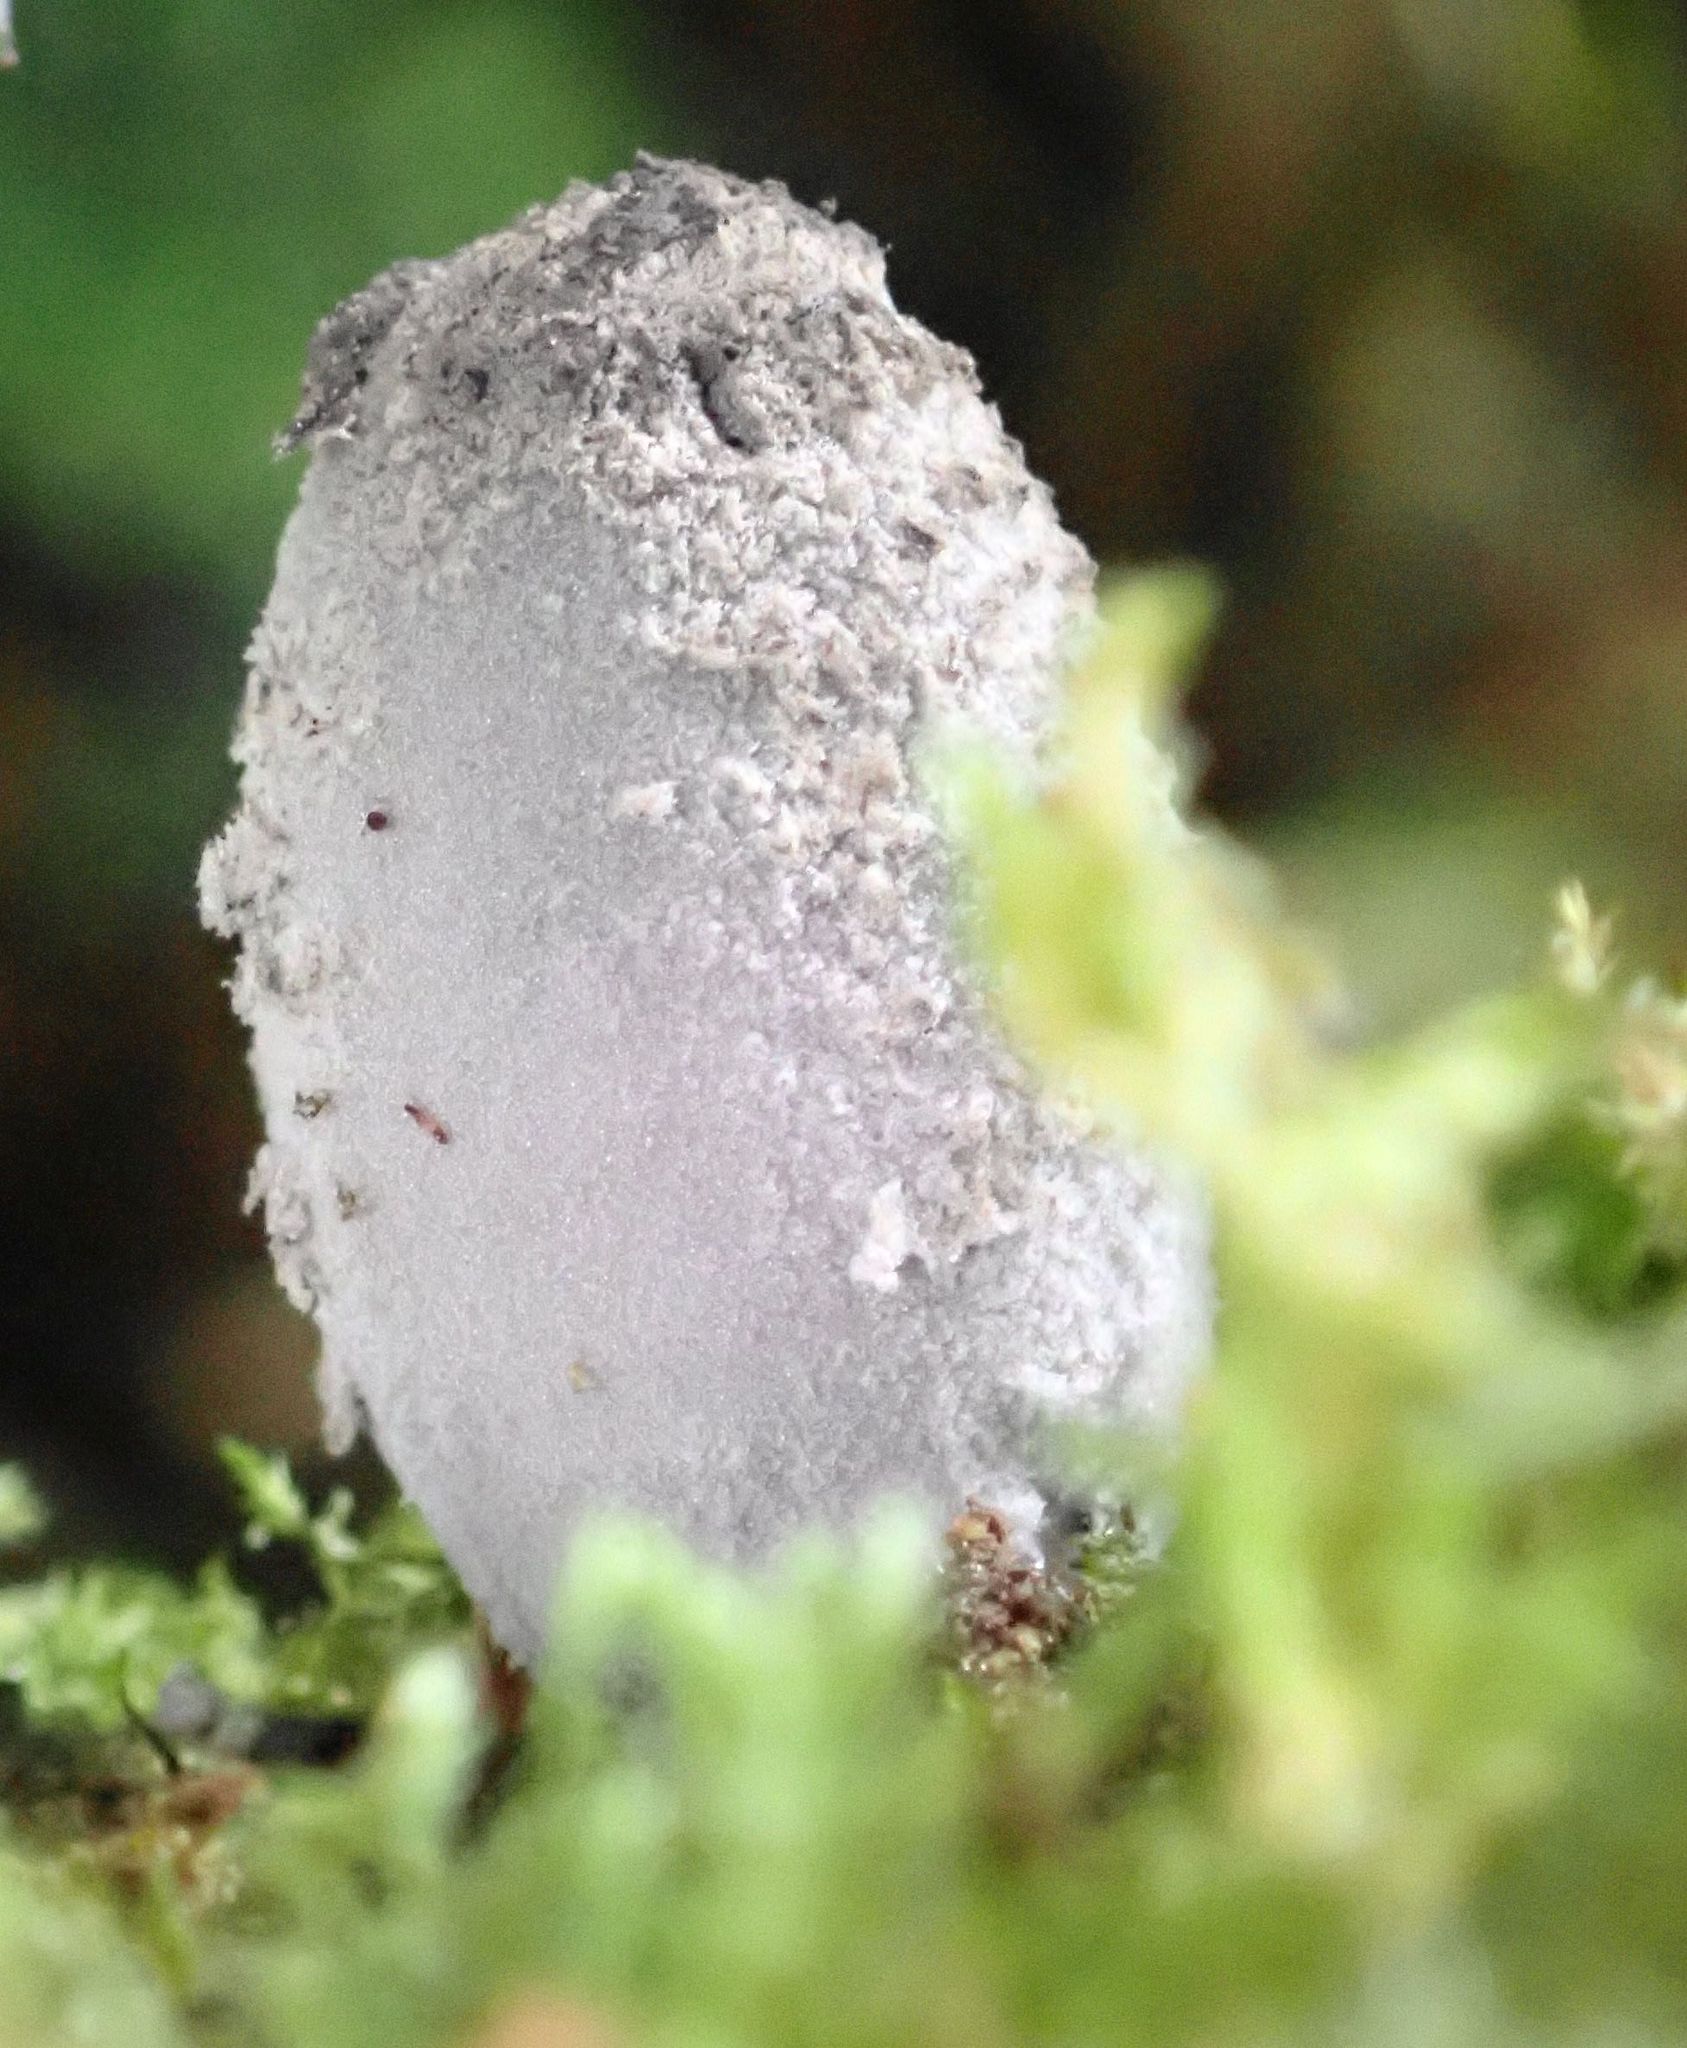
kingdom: Fungi
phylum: Basidiomycota
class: Agaricomycetes
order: Agaricales
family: Psathyrellaceae
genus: Coprinopsis
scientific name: Coprinopsis laanii
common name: Dotty inkcap
